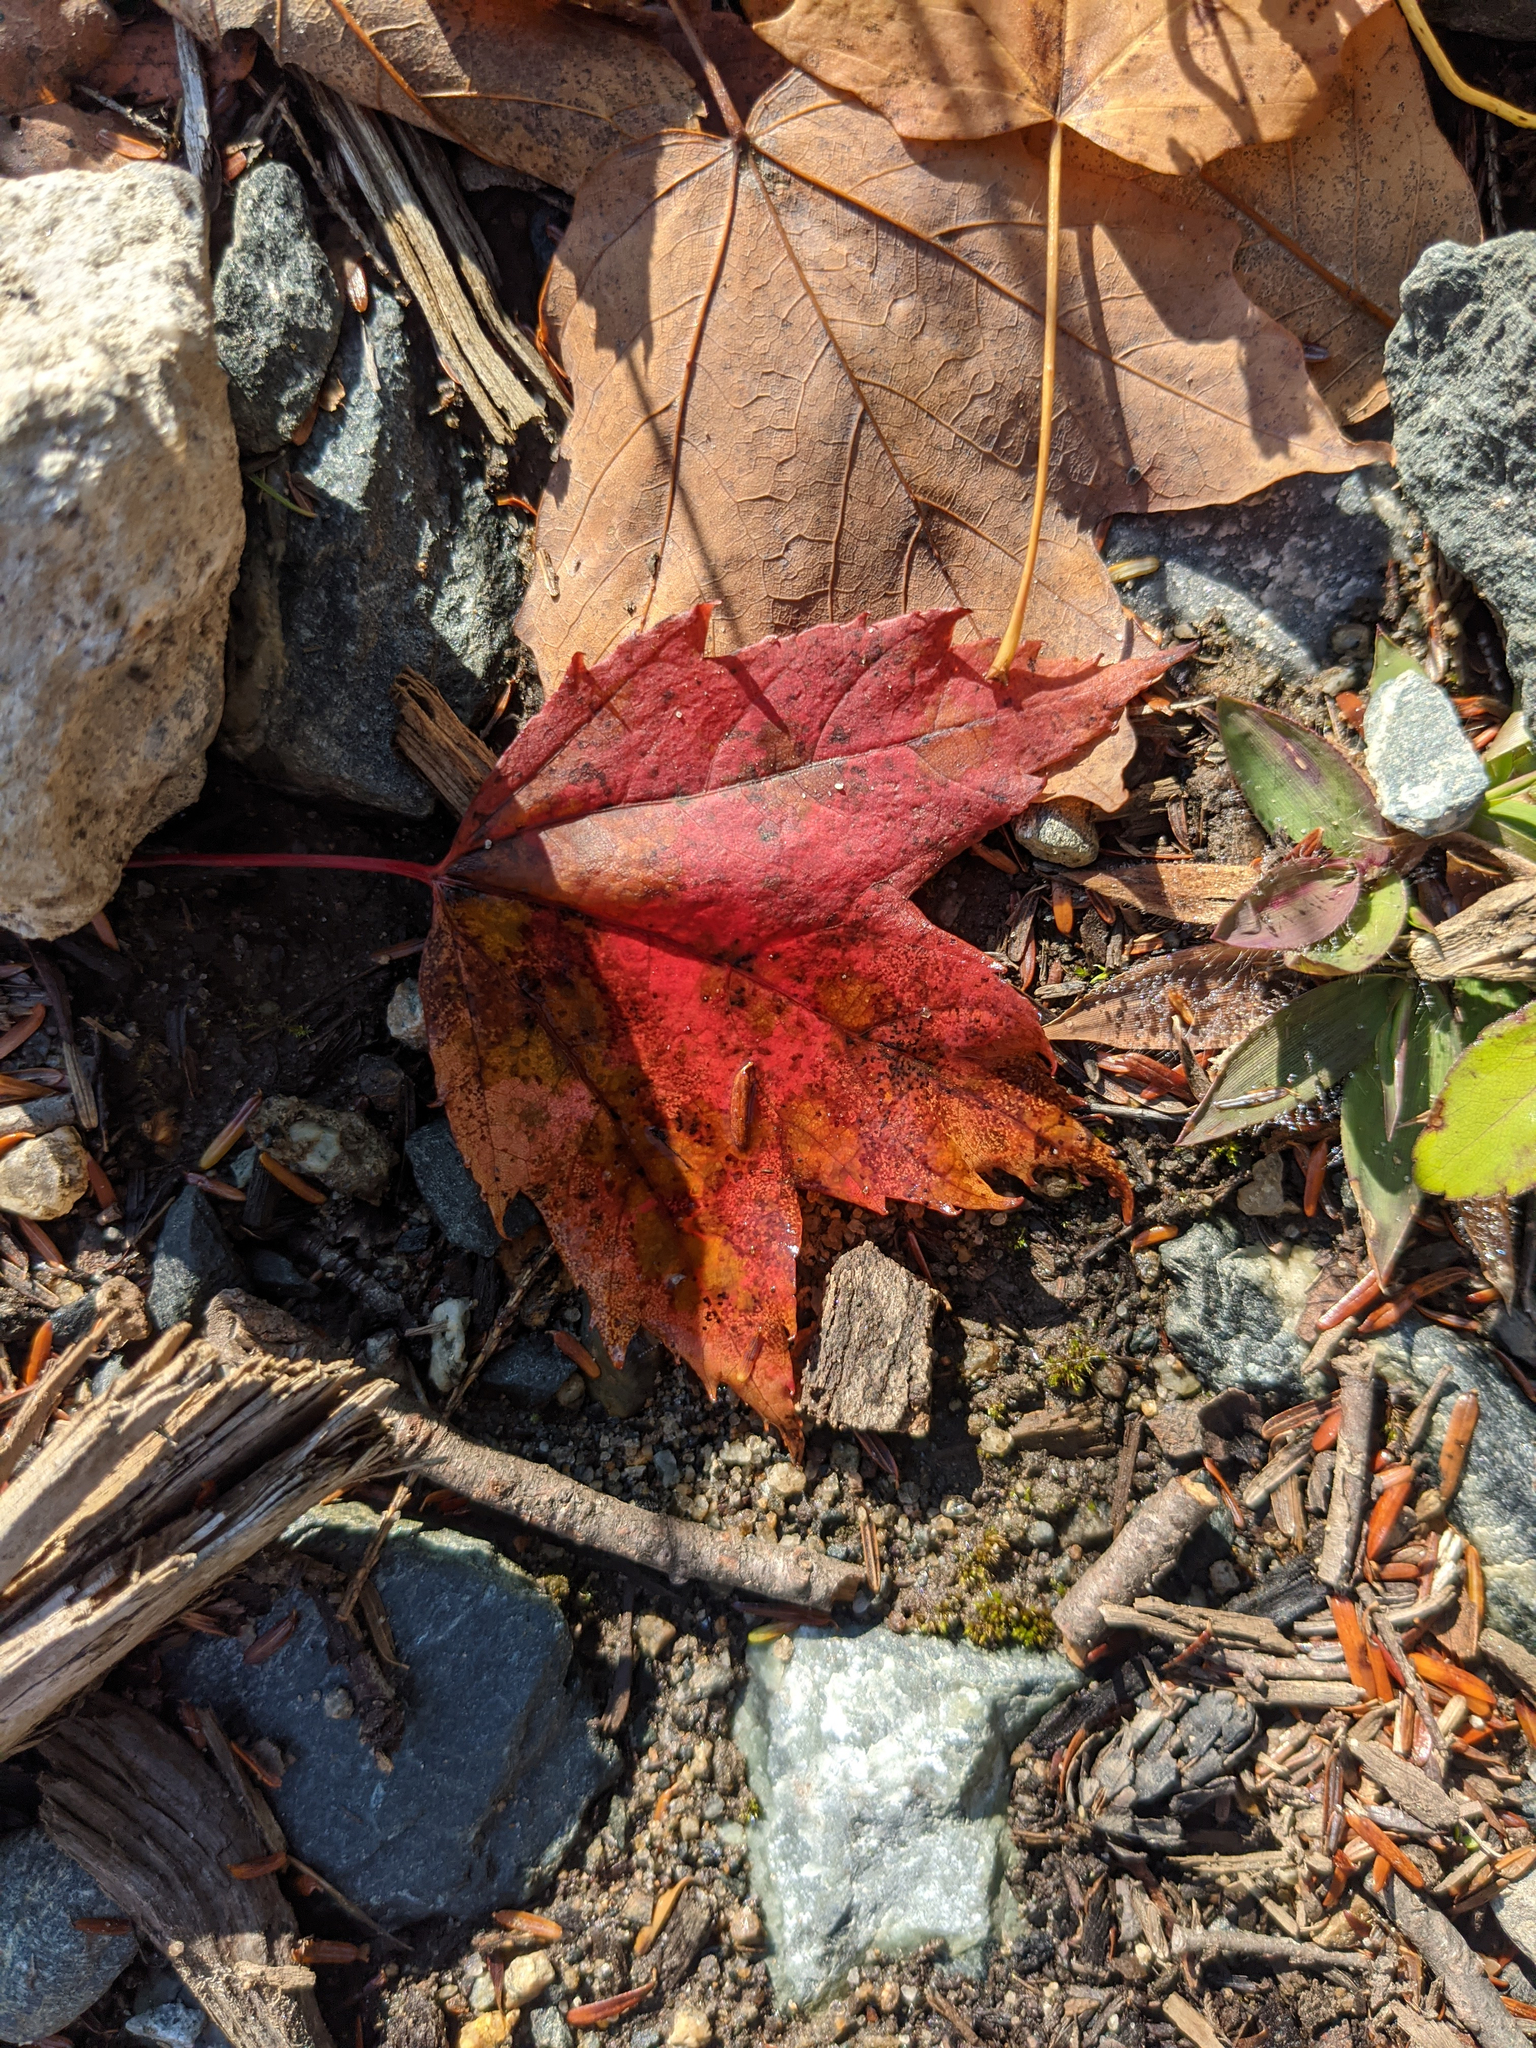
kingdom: Plantae
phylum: Tracheophyta
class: Magnoliopsida
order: Sapindales
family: Sapindaceae
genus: Acer
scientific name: Acer rubrum
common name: Red maple
